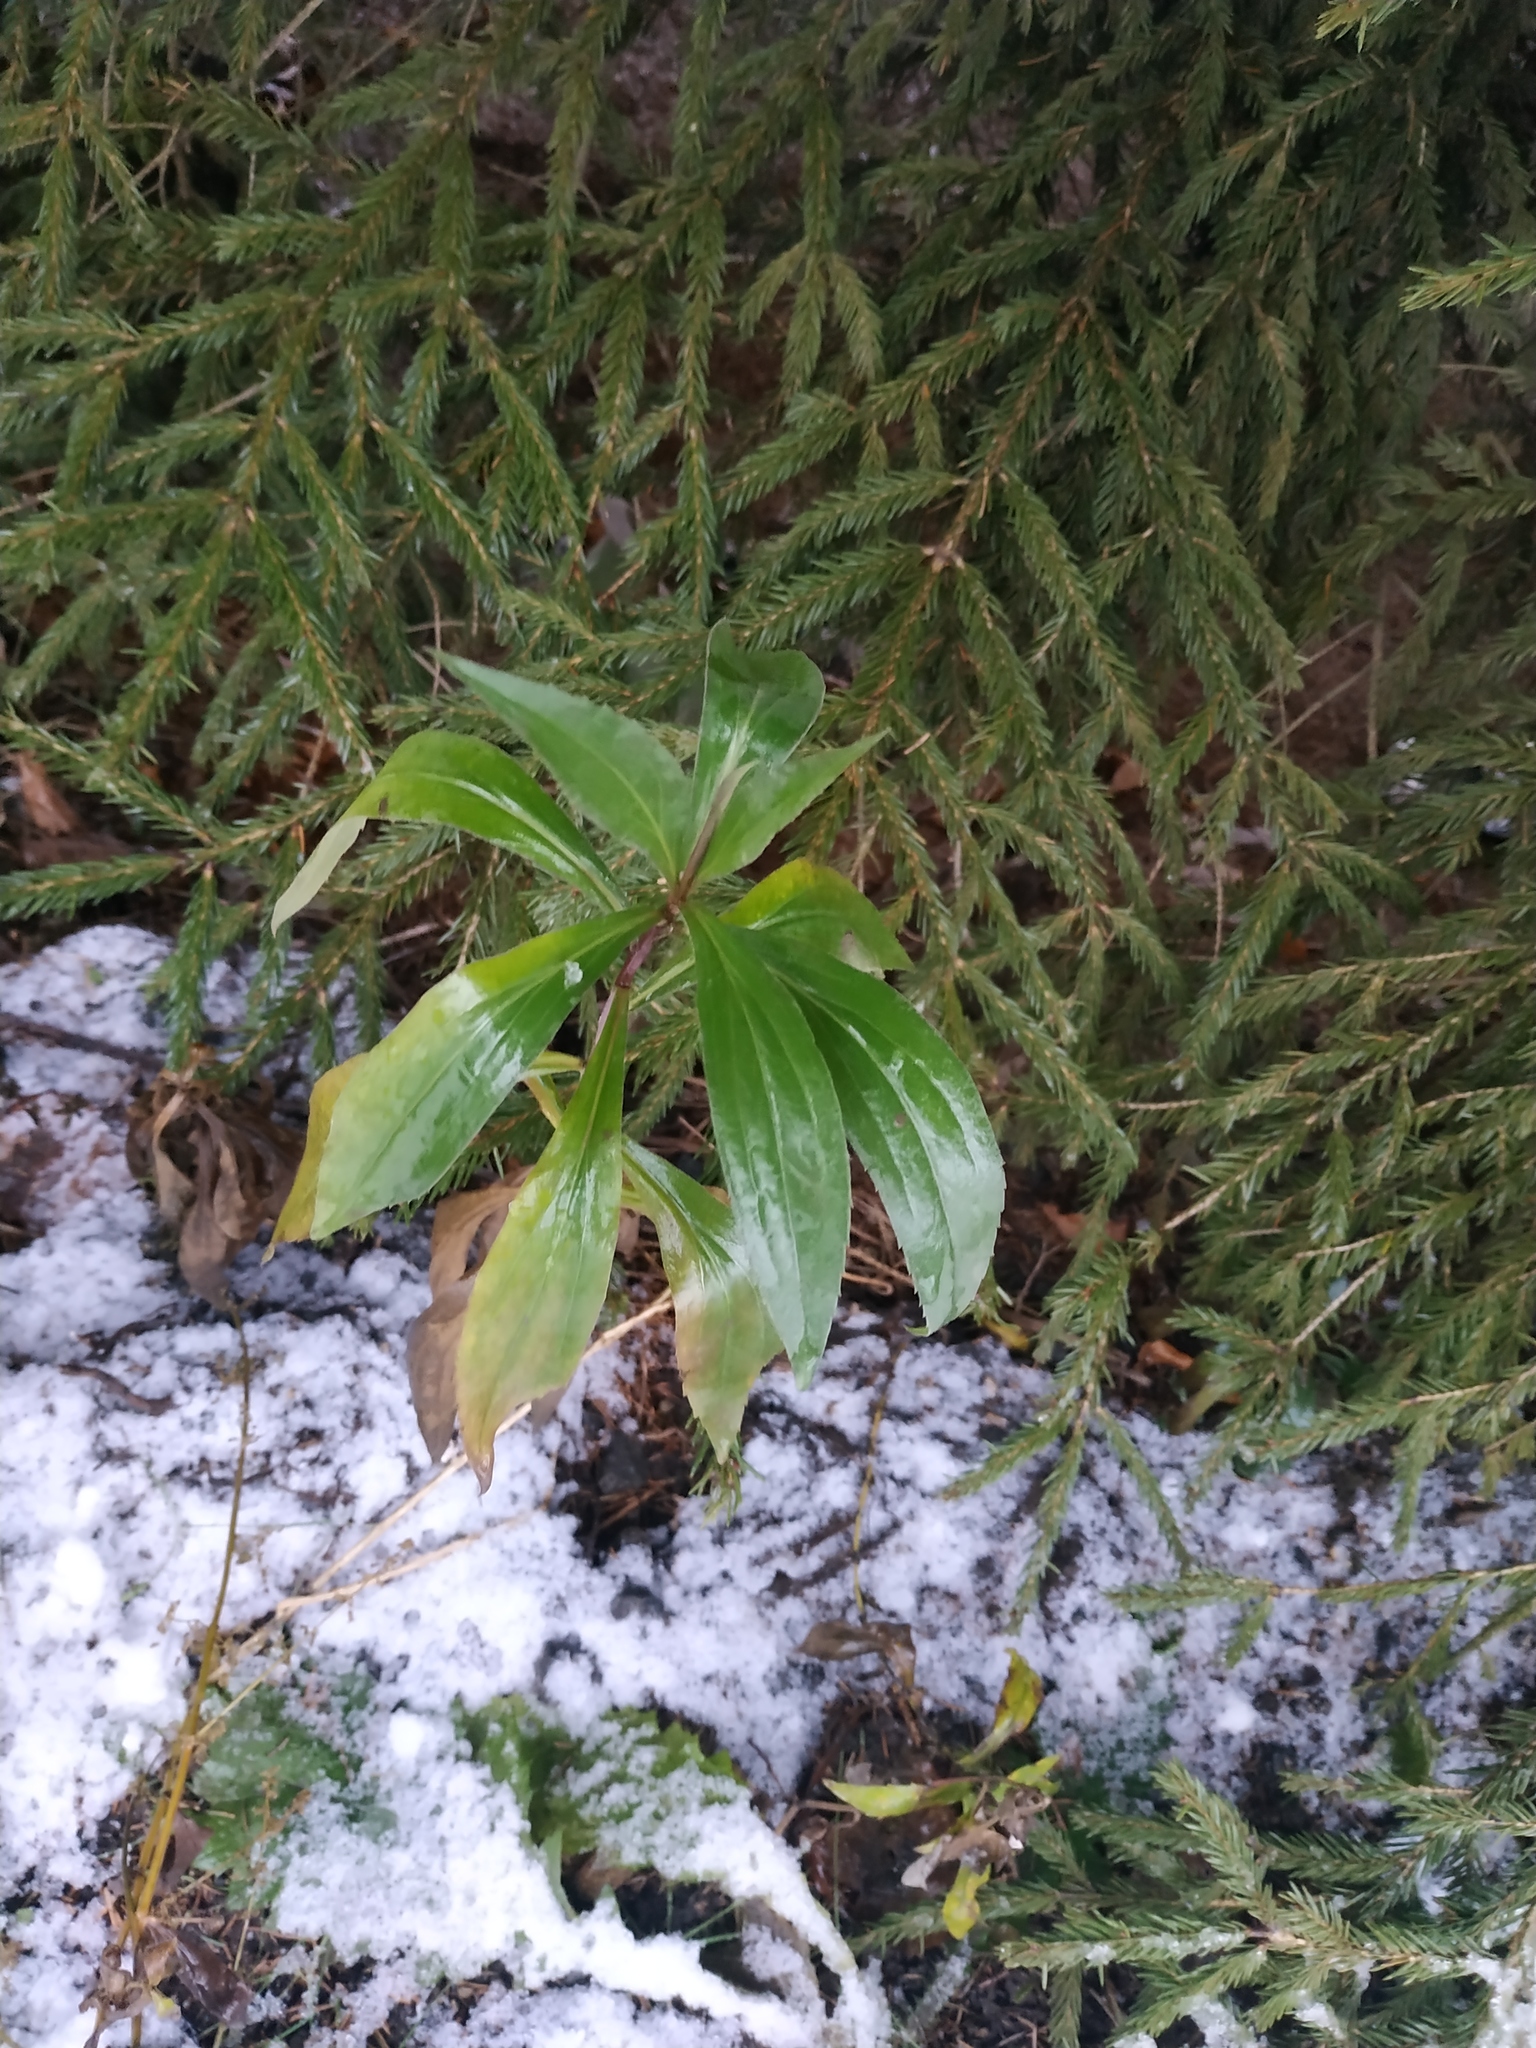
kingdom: Plantae
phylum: Tracheophyta
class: Magnoliopsida
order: Asterales
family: Asteraceae
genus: Solidago
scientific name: Solidago gigantea
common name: Giant goldenrod
